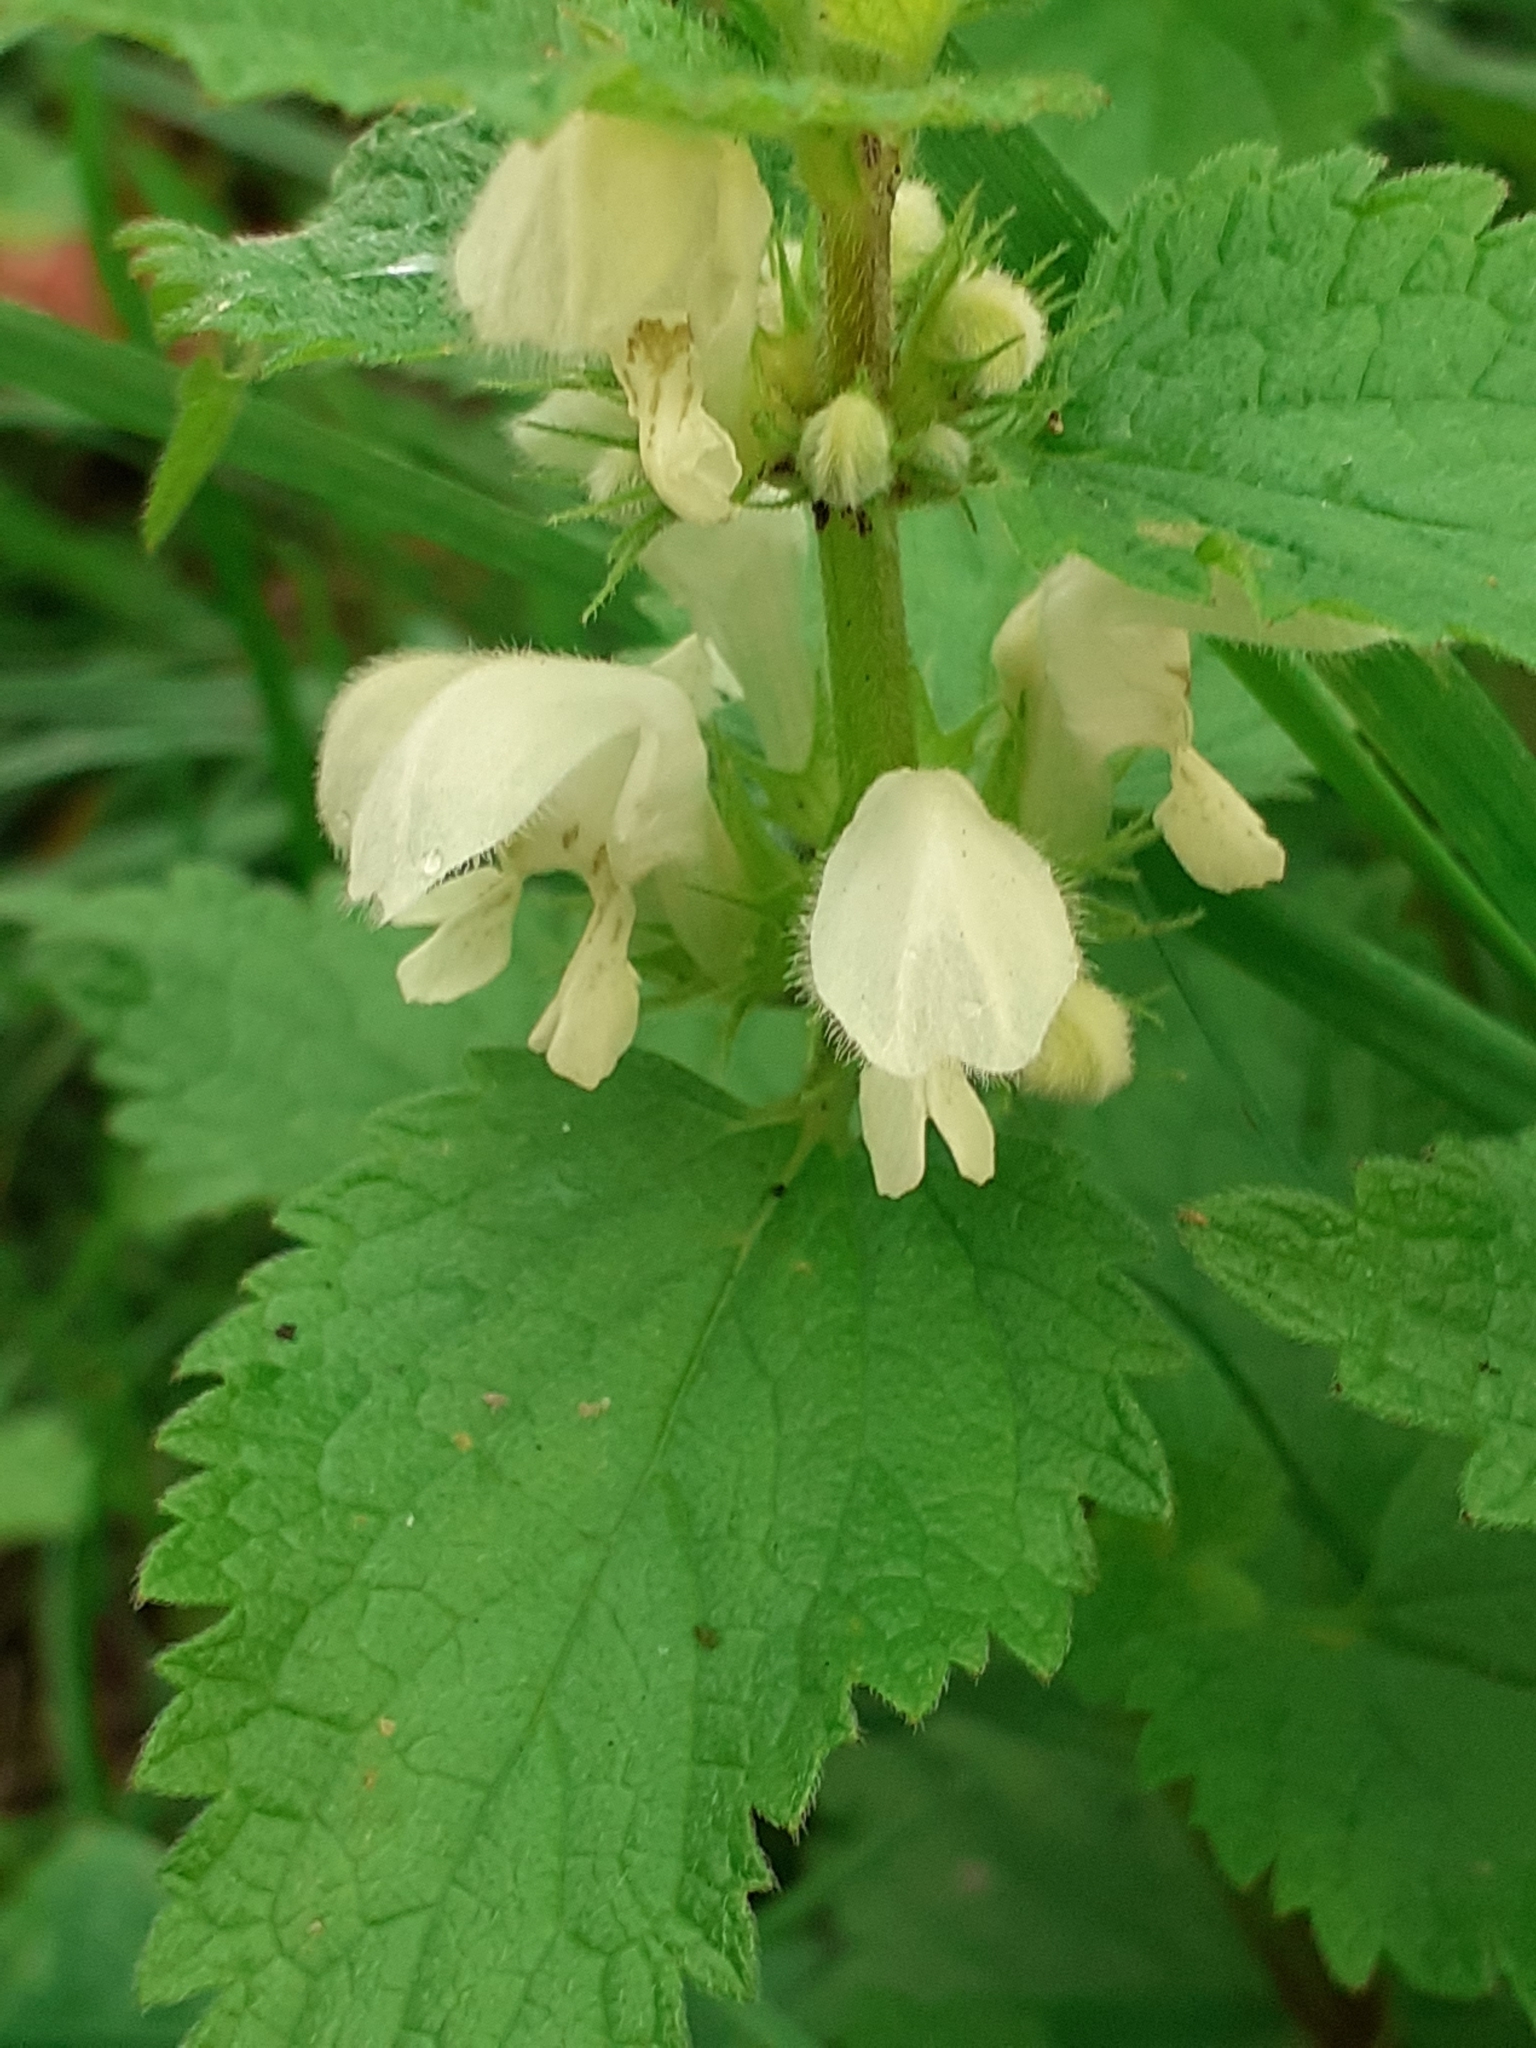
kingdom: Plantae
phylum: Tracheophyta
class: Magnoliopsida
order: Lamiales
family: Lamiaceae
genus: Lamium
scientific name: Lamium album
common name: White dead-nettle
